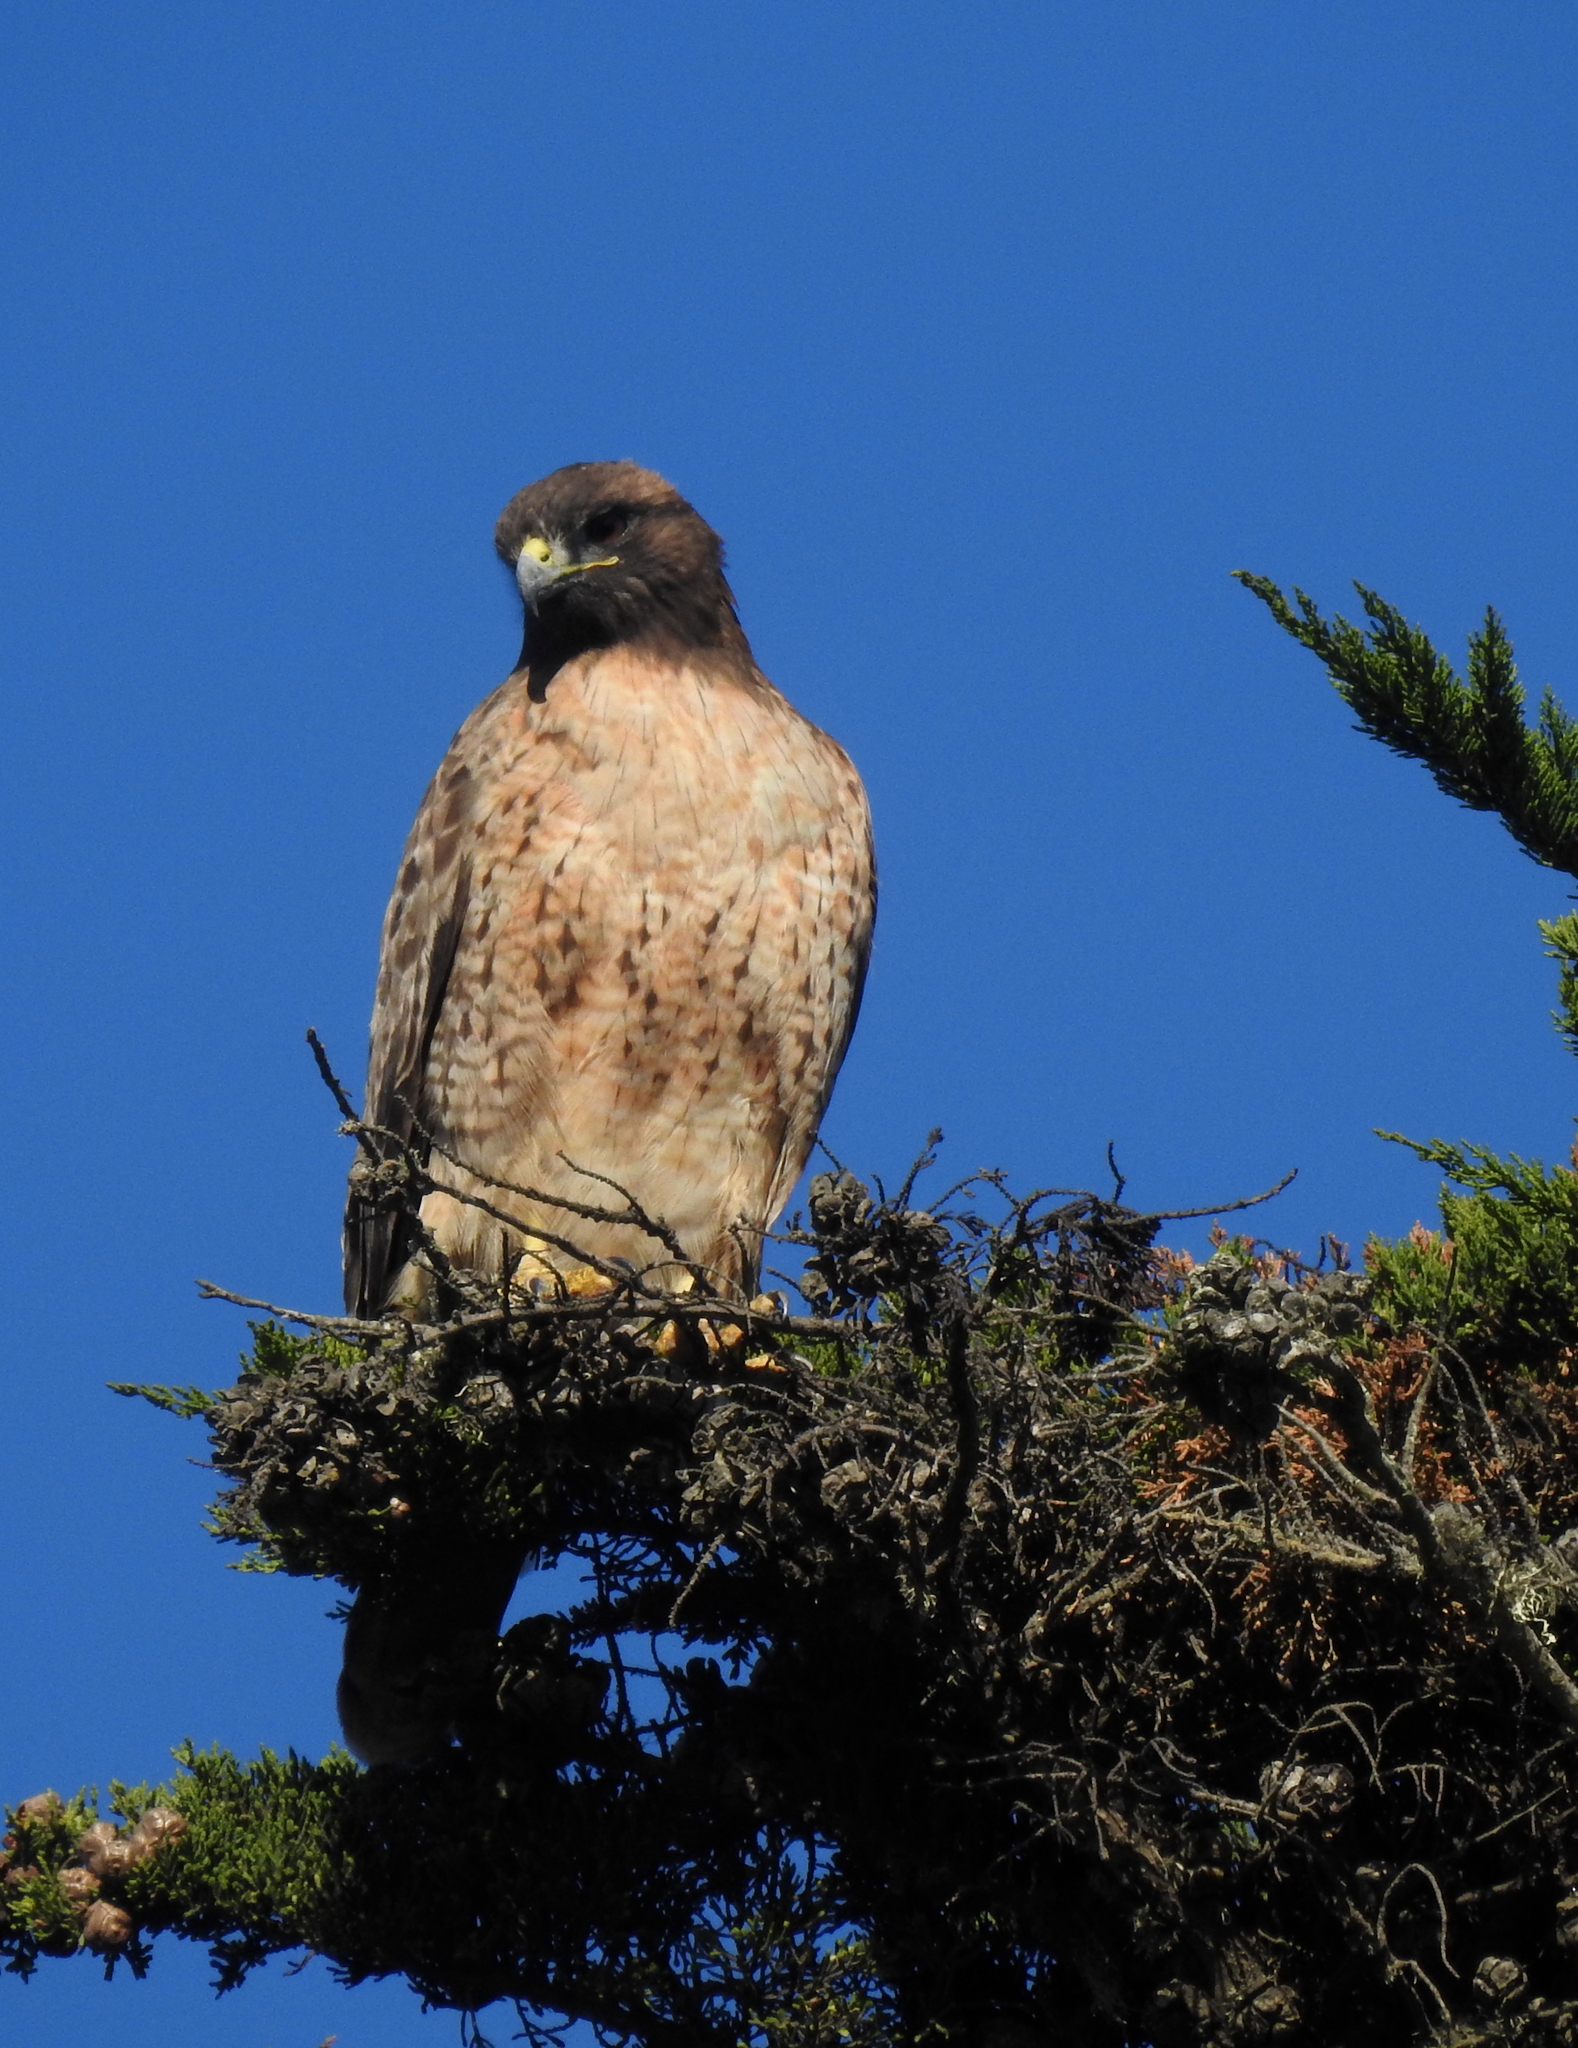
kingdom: Animalia
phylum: Chordata
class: Aves
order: Accipitriformes
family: Accipitridae
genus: Buteo
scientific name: Buteo jamaicensis
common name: Red-tailed hawk
